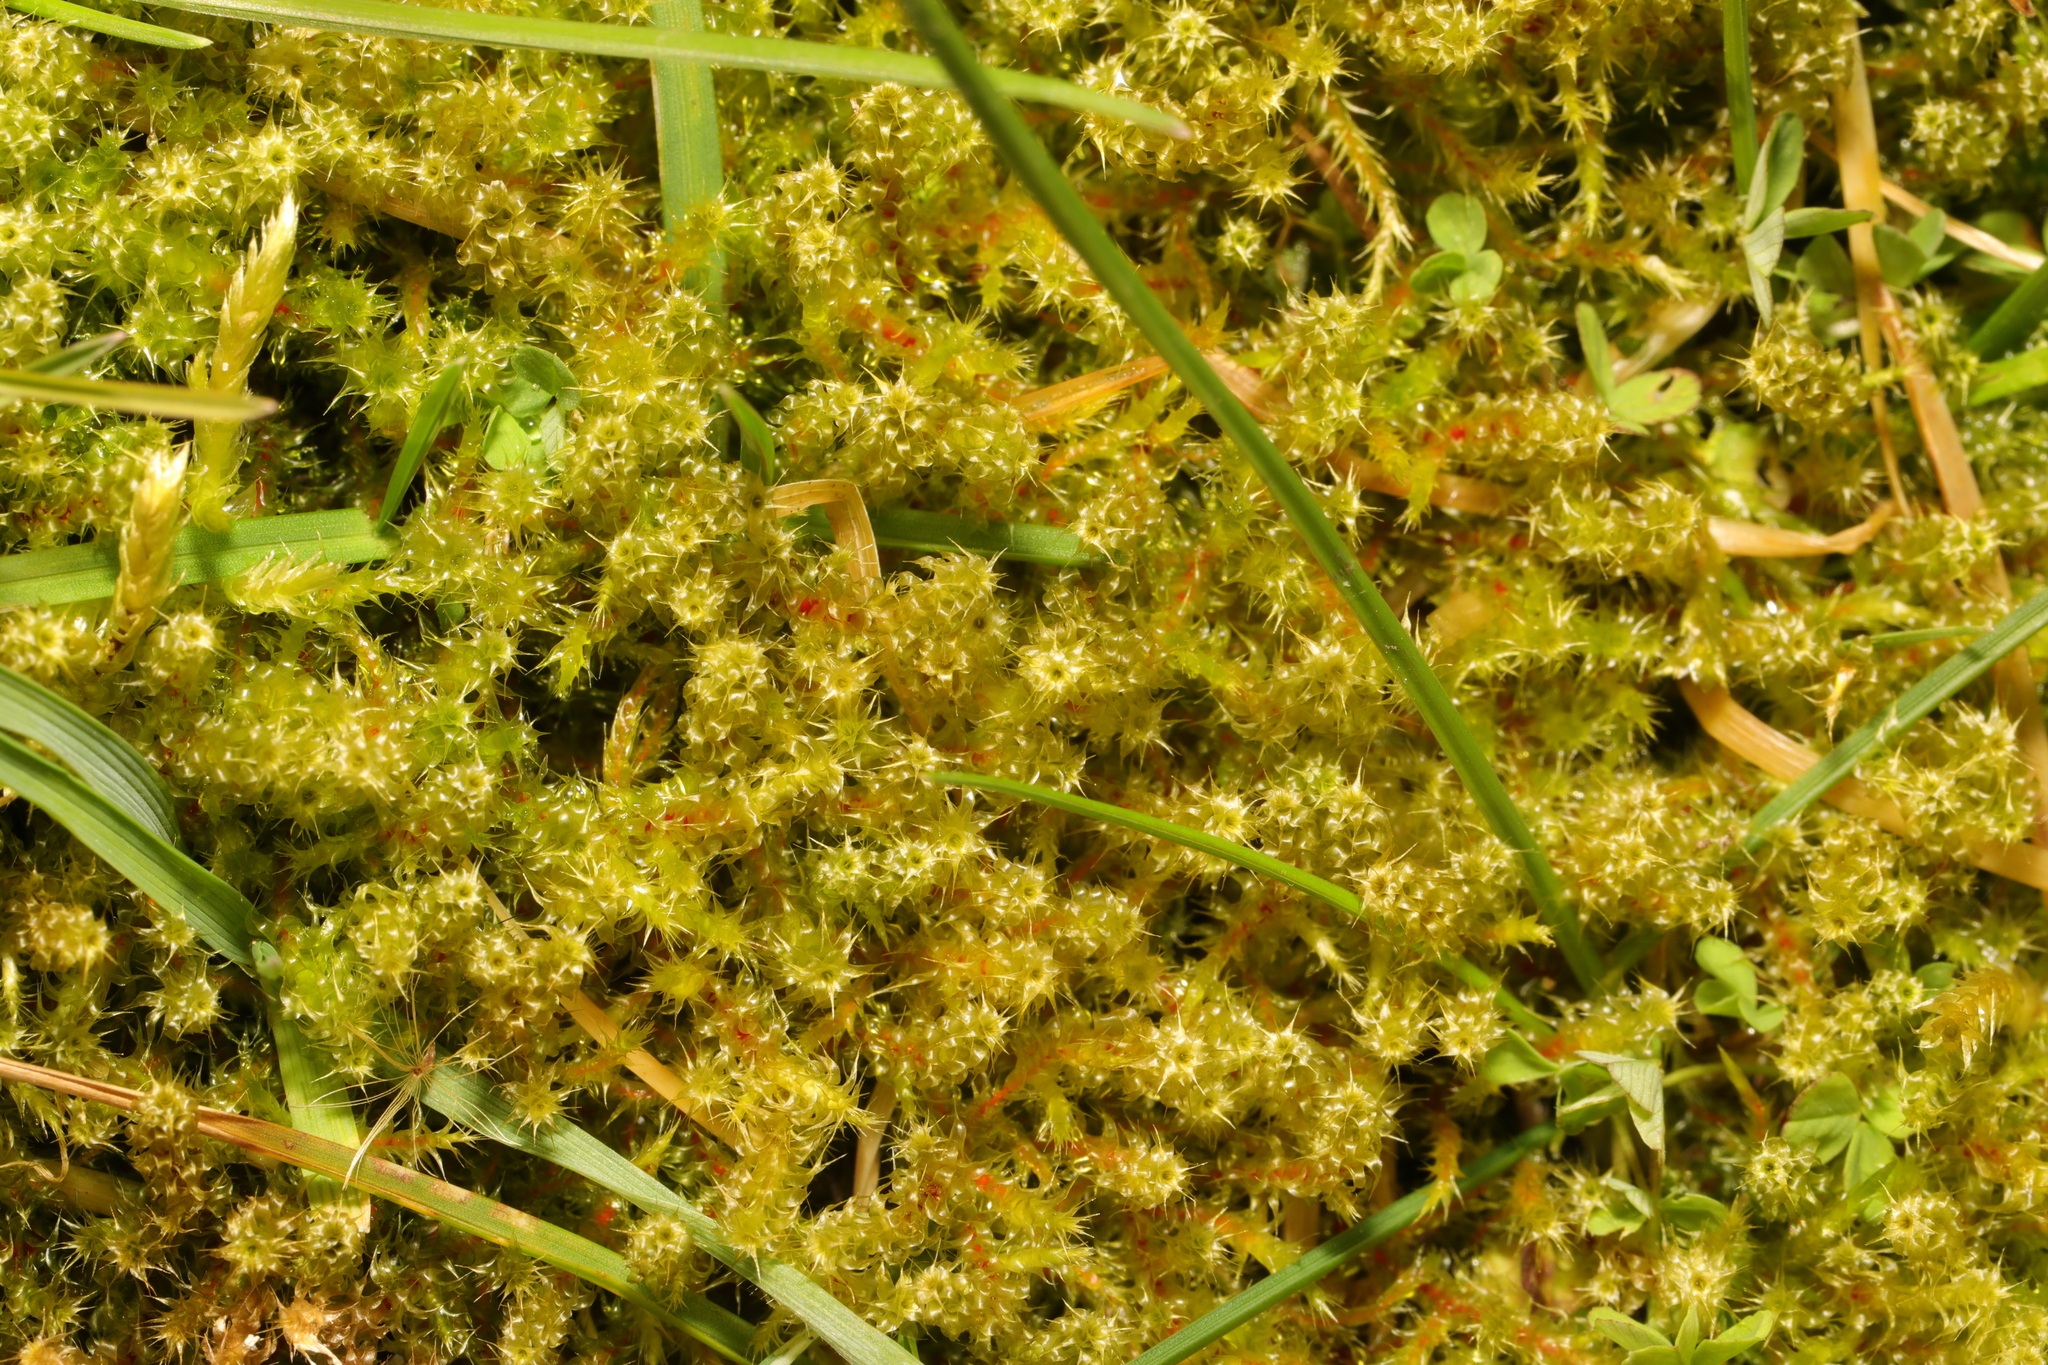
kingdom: Plantae
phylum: Bryophyta
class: Bryopsida
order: Hypnales
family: Hylocomiaceae
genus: Rhytidiadelphus
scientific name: Rhytidiadelphus squarrosus
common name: Springy turf-moss
